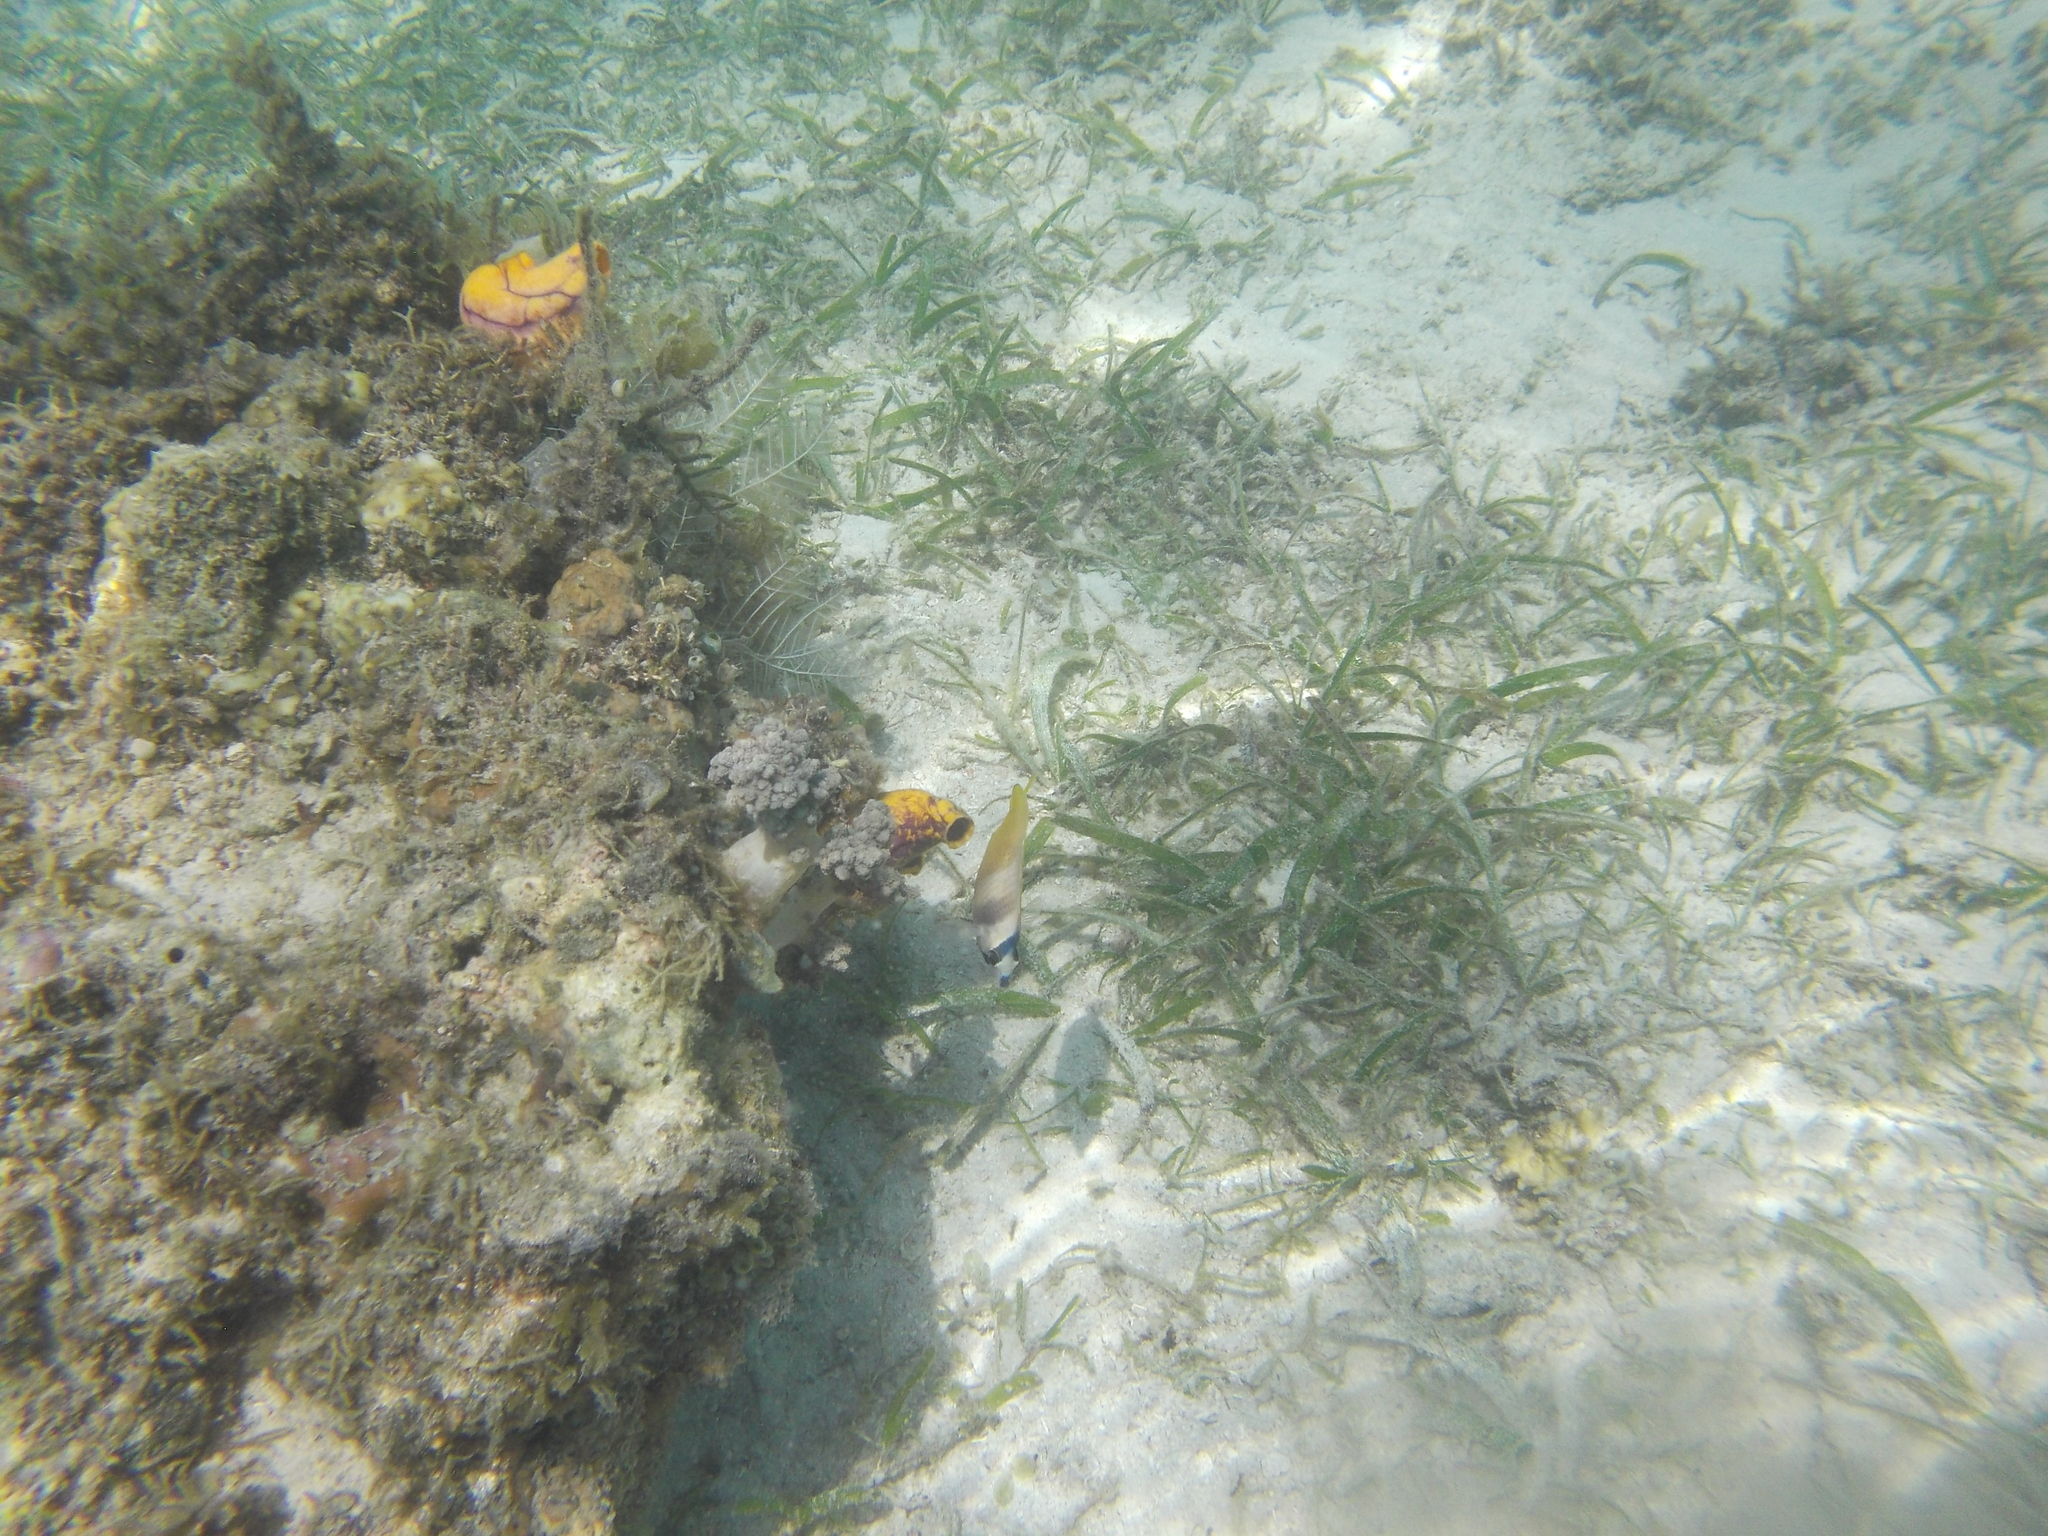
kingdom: Animalia
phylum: Chordata
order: Perciformes
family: Chaetodontidae
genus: Chaetodon
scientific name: Chaetodon kleinii
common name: Klein's butterflyfish
